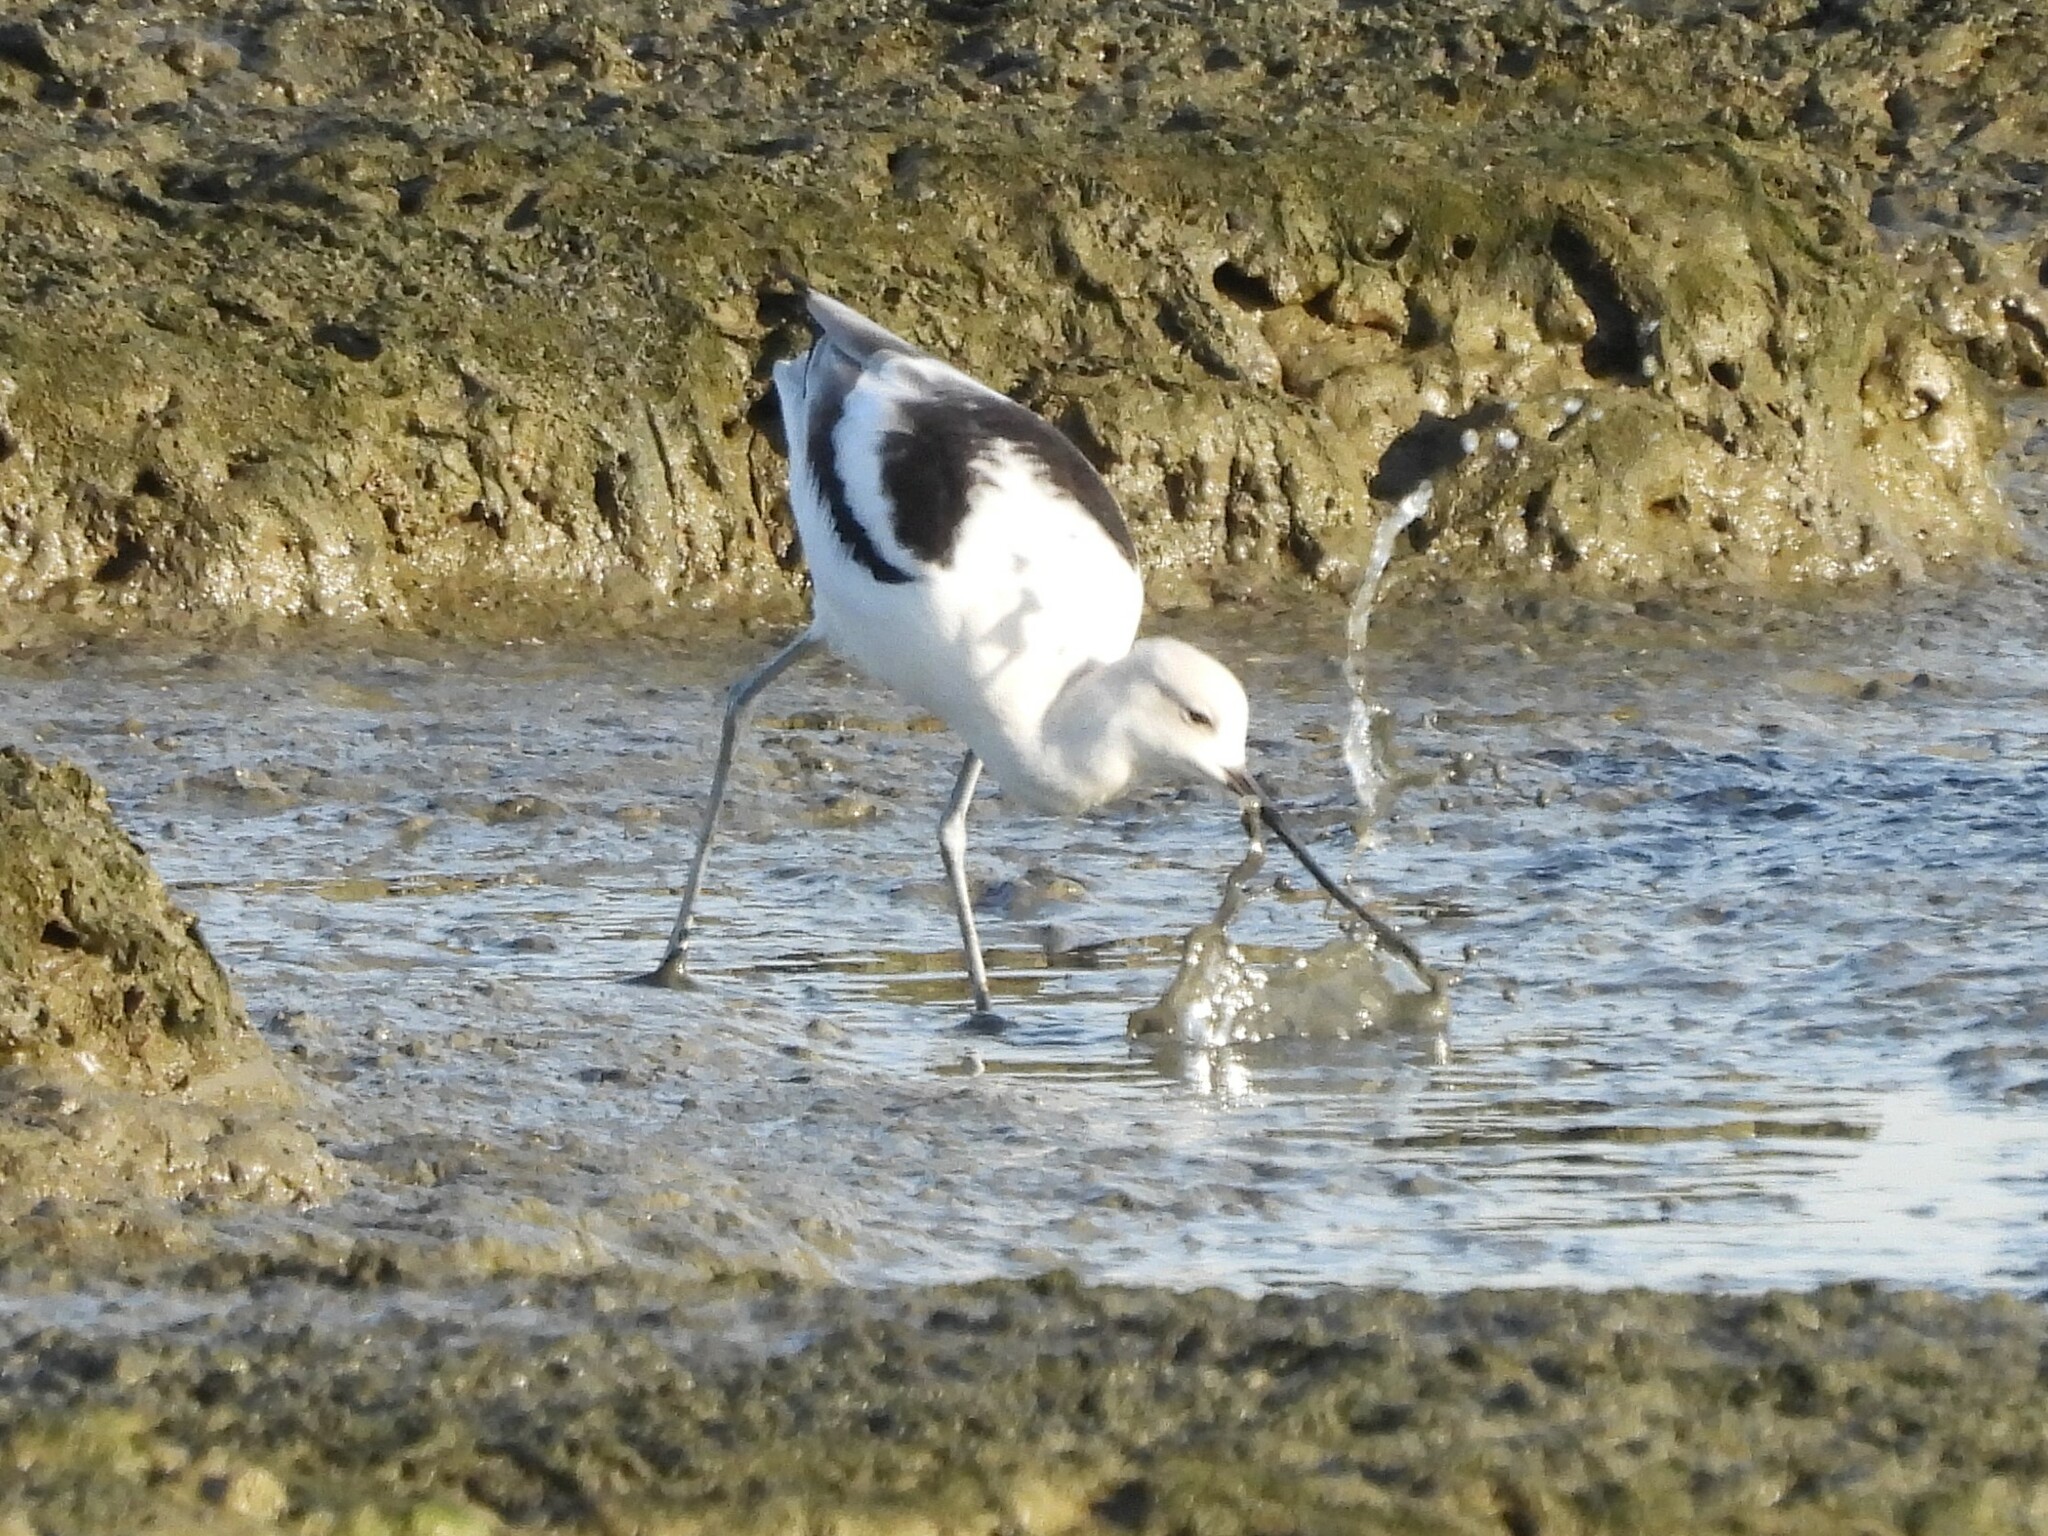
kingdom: Animalia
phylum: Chordata
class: Aves
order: Charadriiformes
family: Recurvirostridae
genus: Recurvirostra
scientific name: Recurvirostra americana
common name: American avocet
